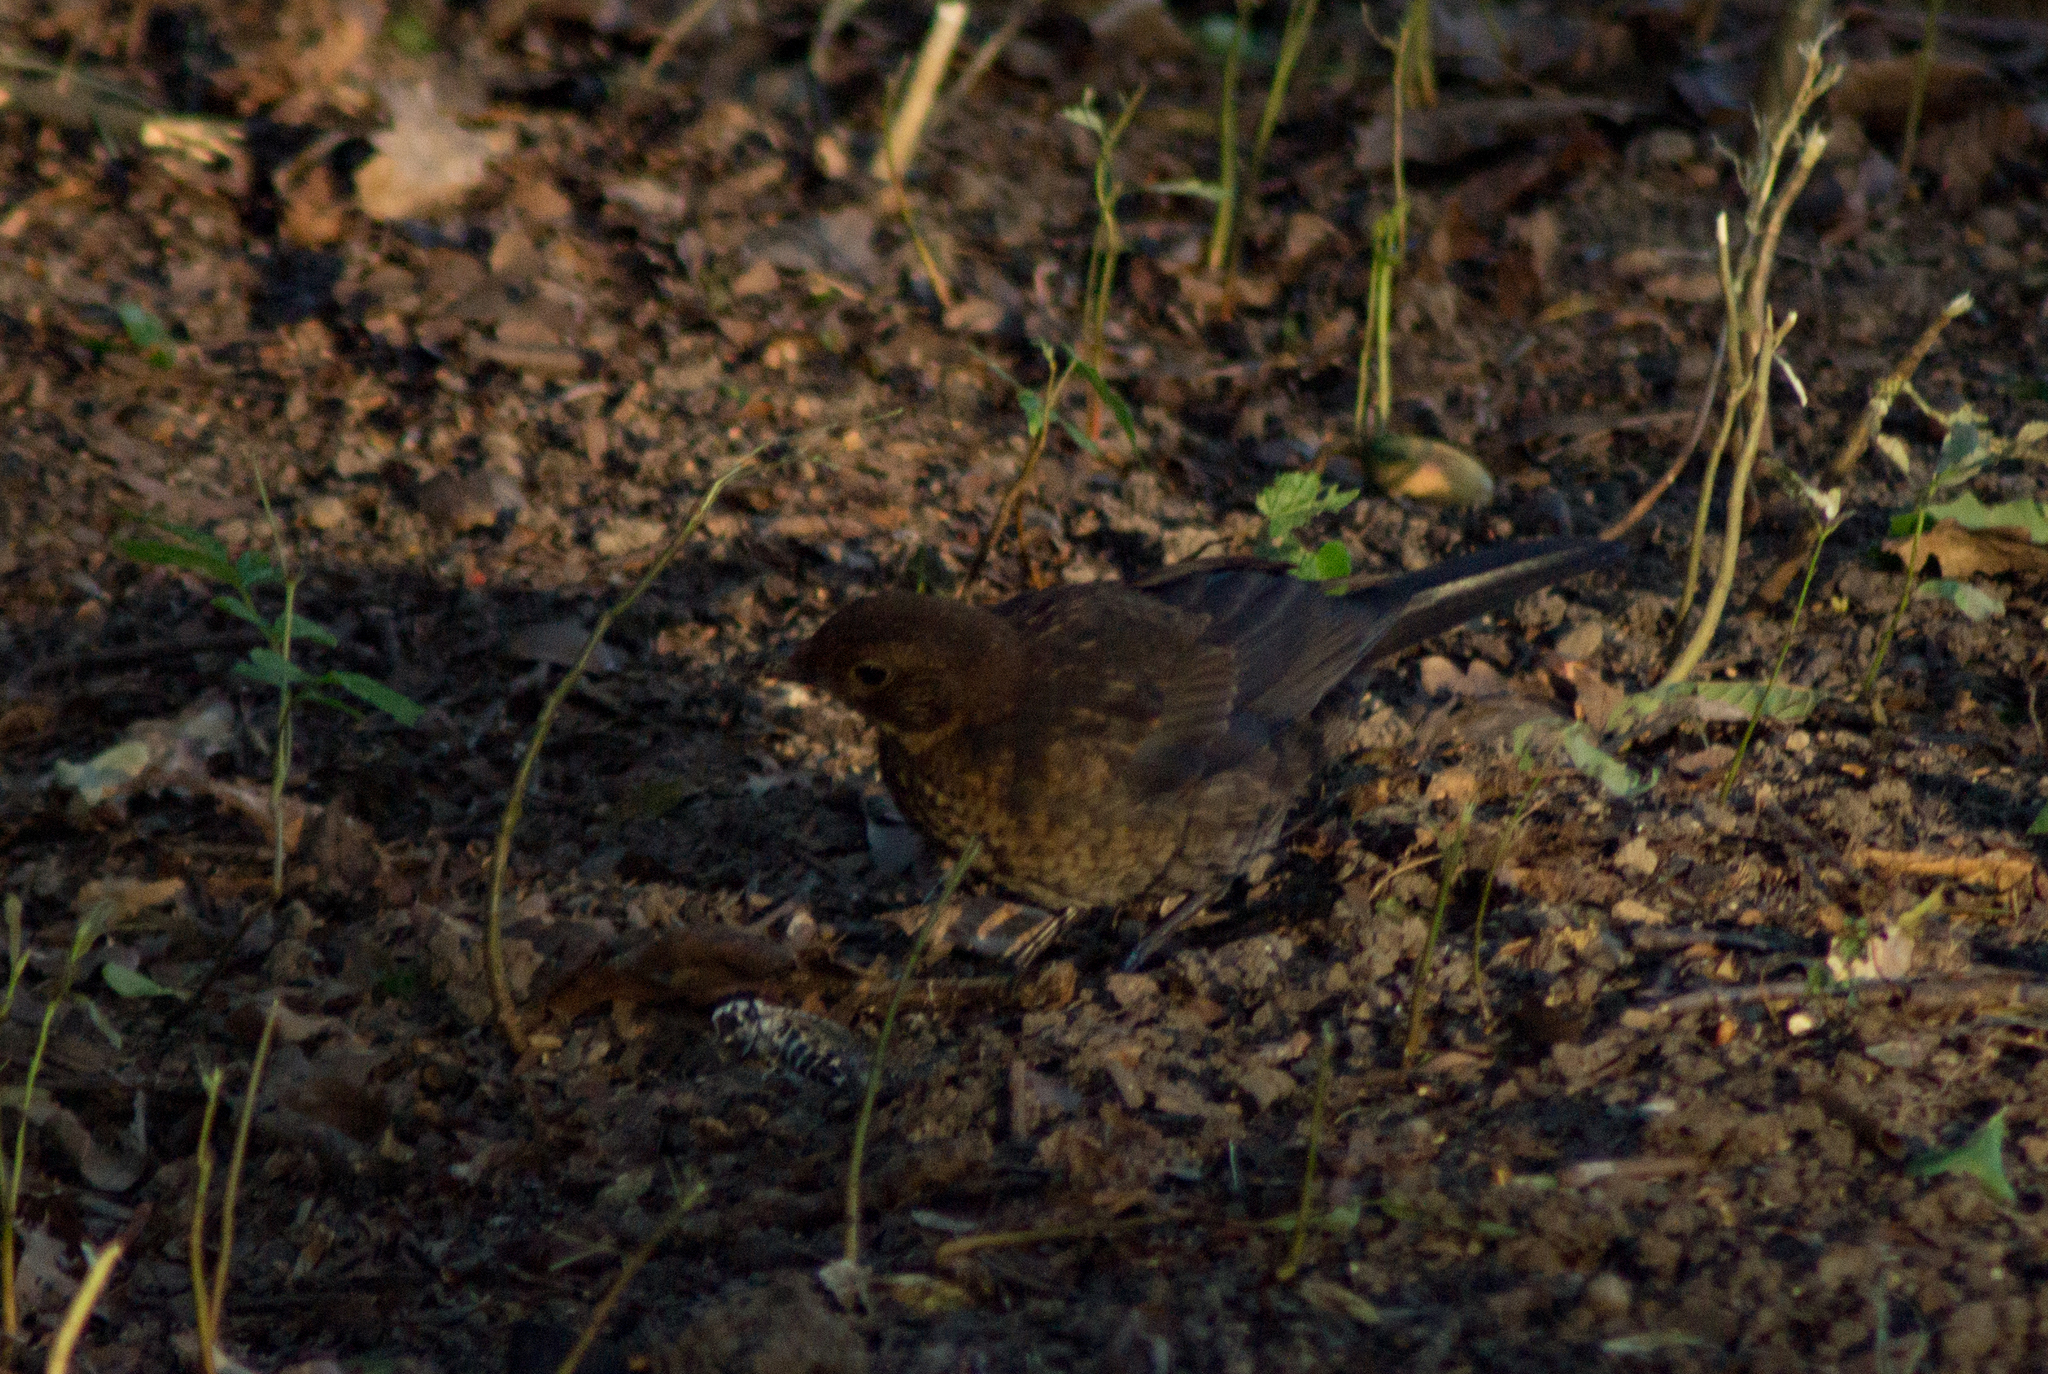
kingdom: Animalia
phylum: Chordata
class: Aves
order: Passeriformes
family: Turdidae
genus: Turdus
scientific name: Turdus merula
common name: Common blackbird
